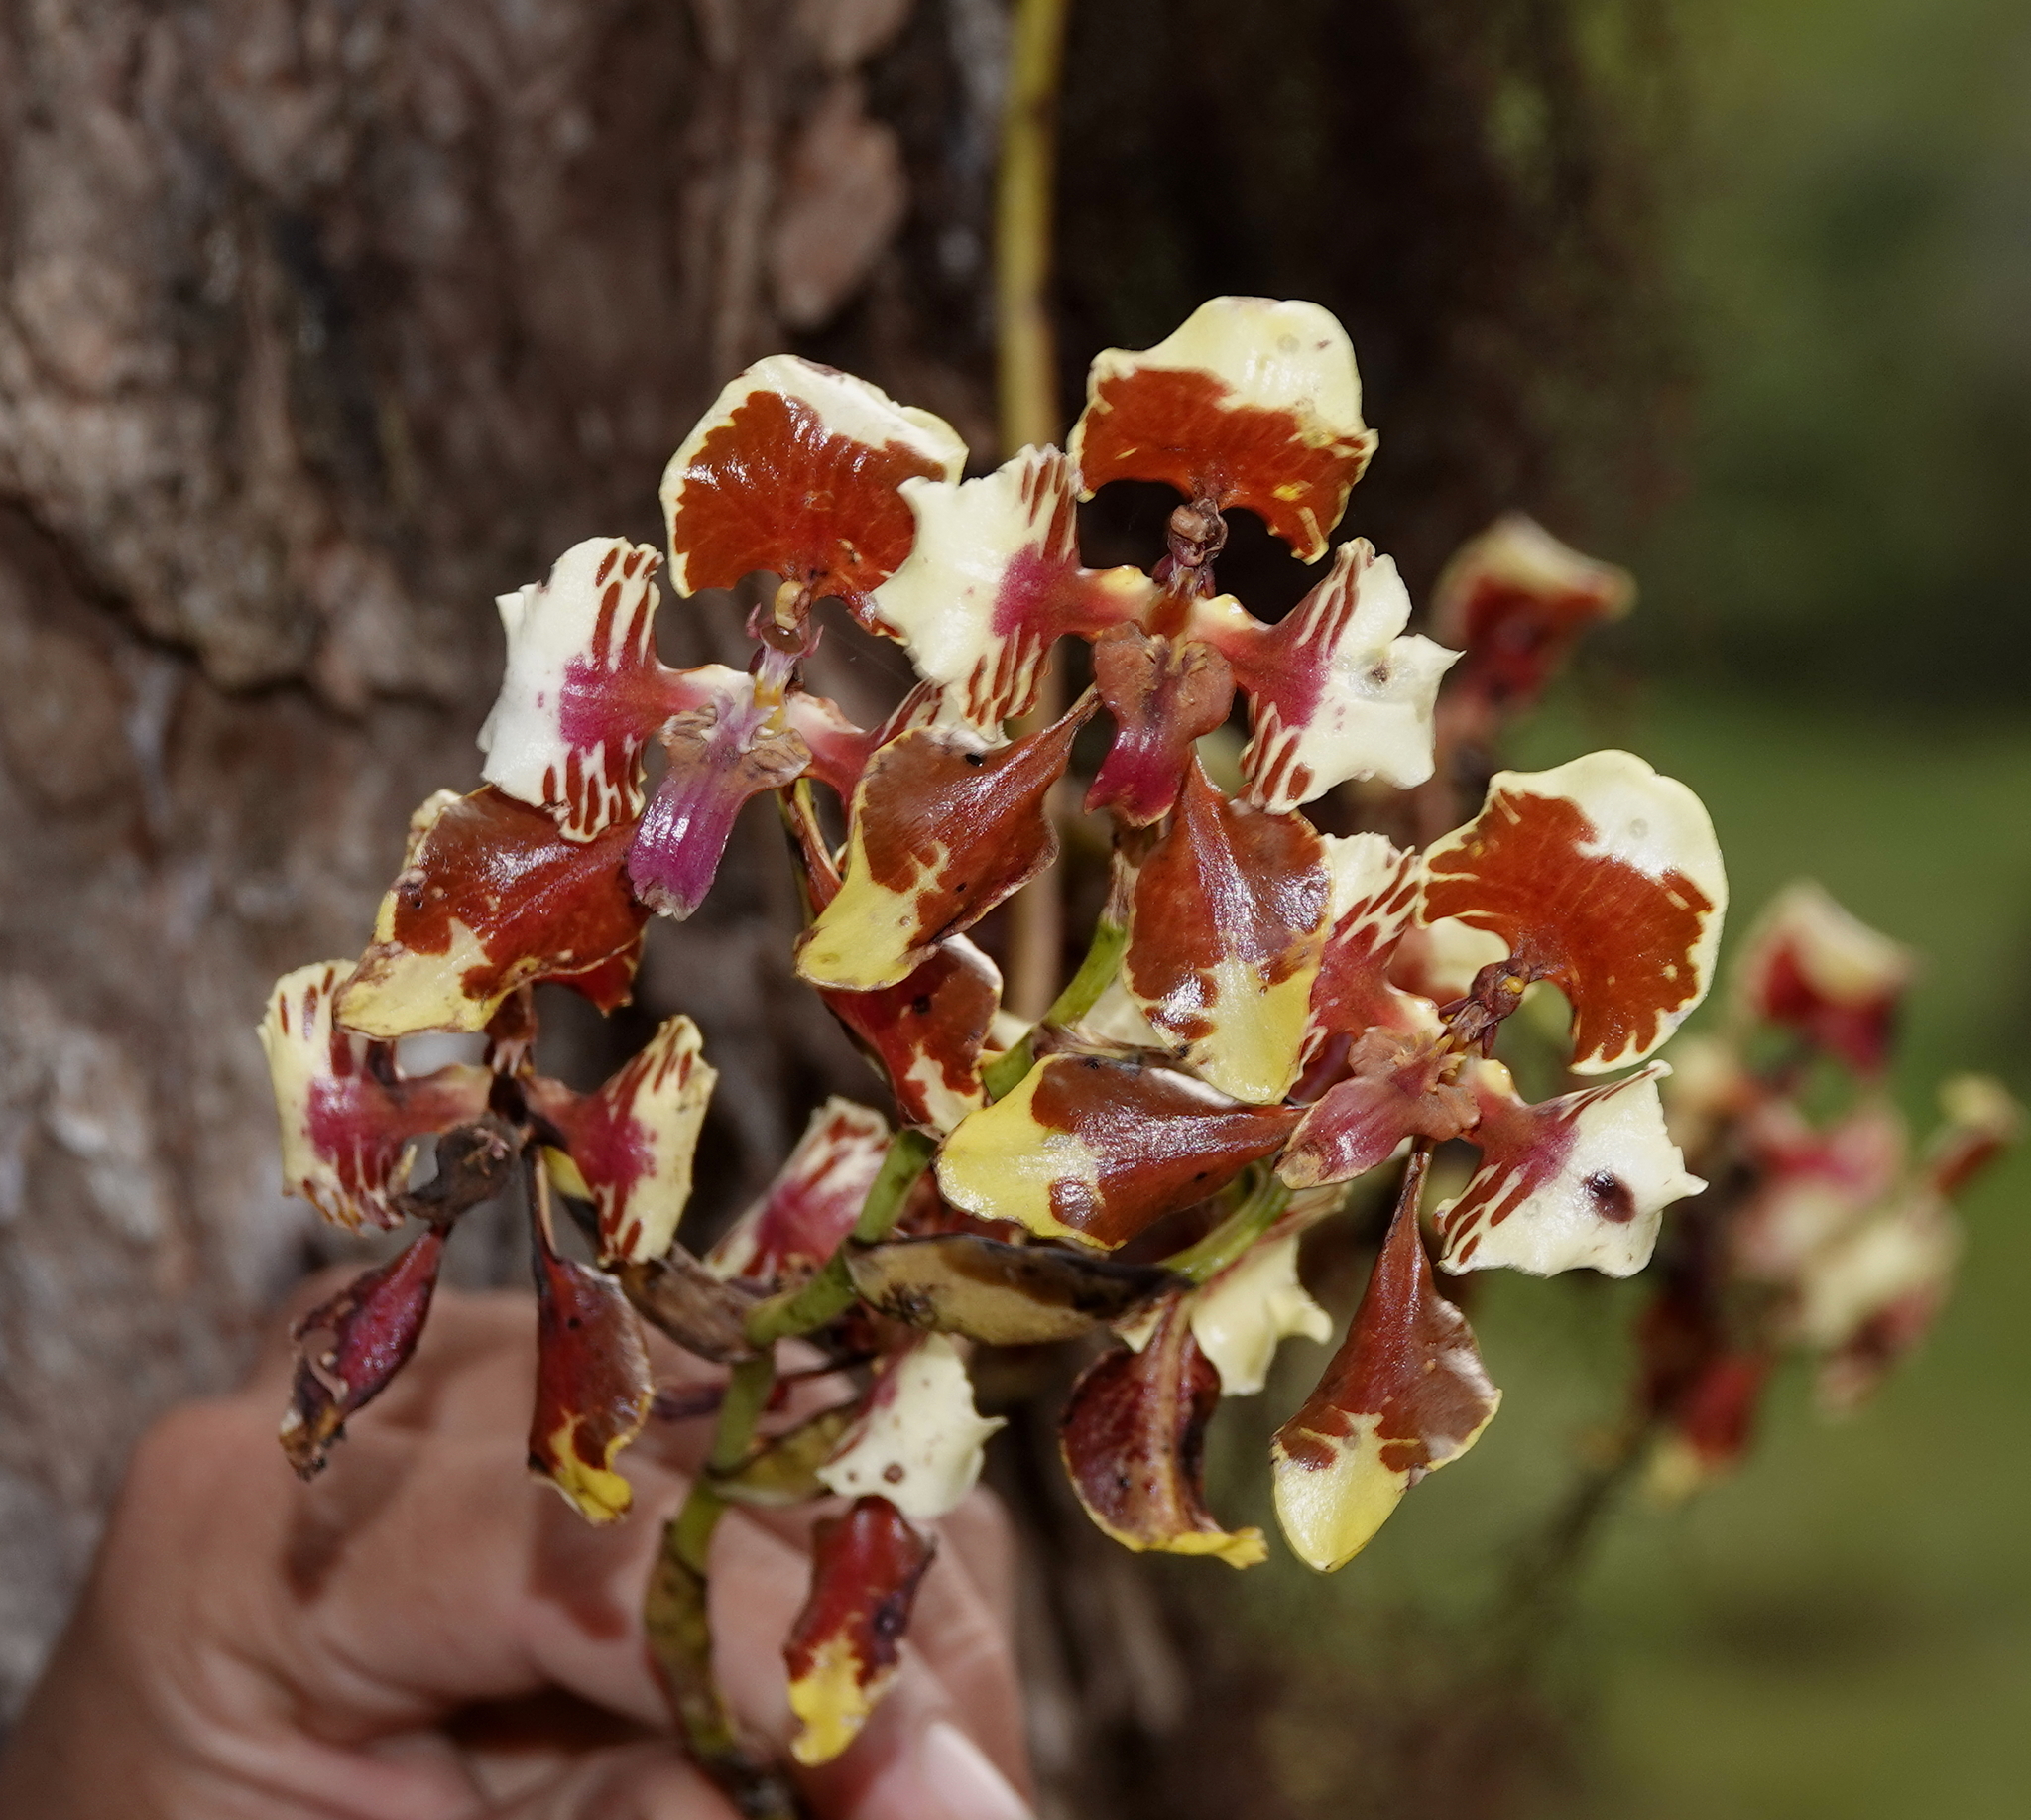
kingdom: Plantae
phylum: Tracheophyta
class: Liliopsida
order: Asparagales
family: Orchidaceae
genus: Cyrtochilum
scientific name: Cyrtochilum halteratum
